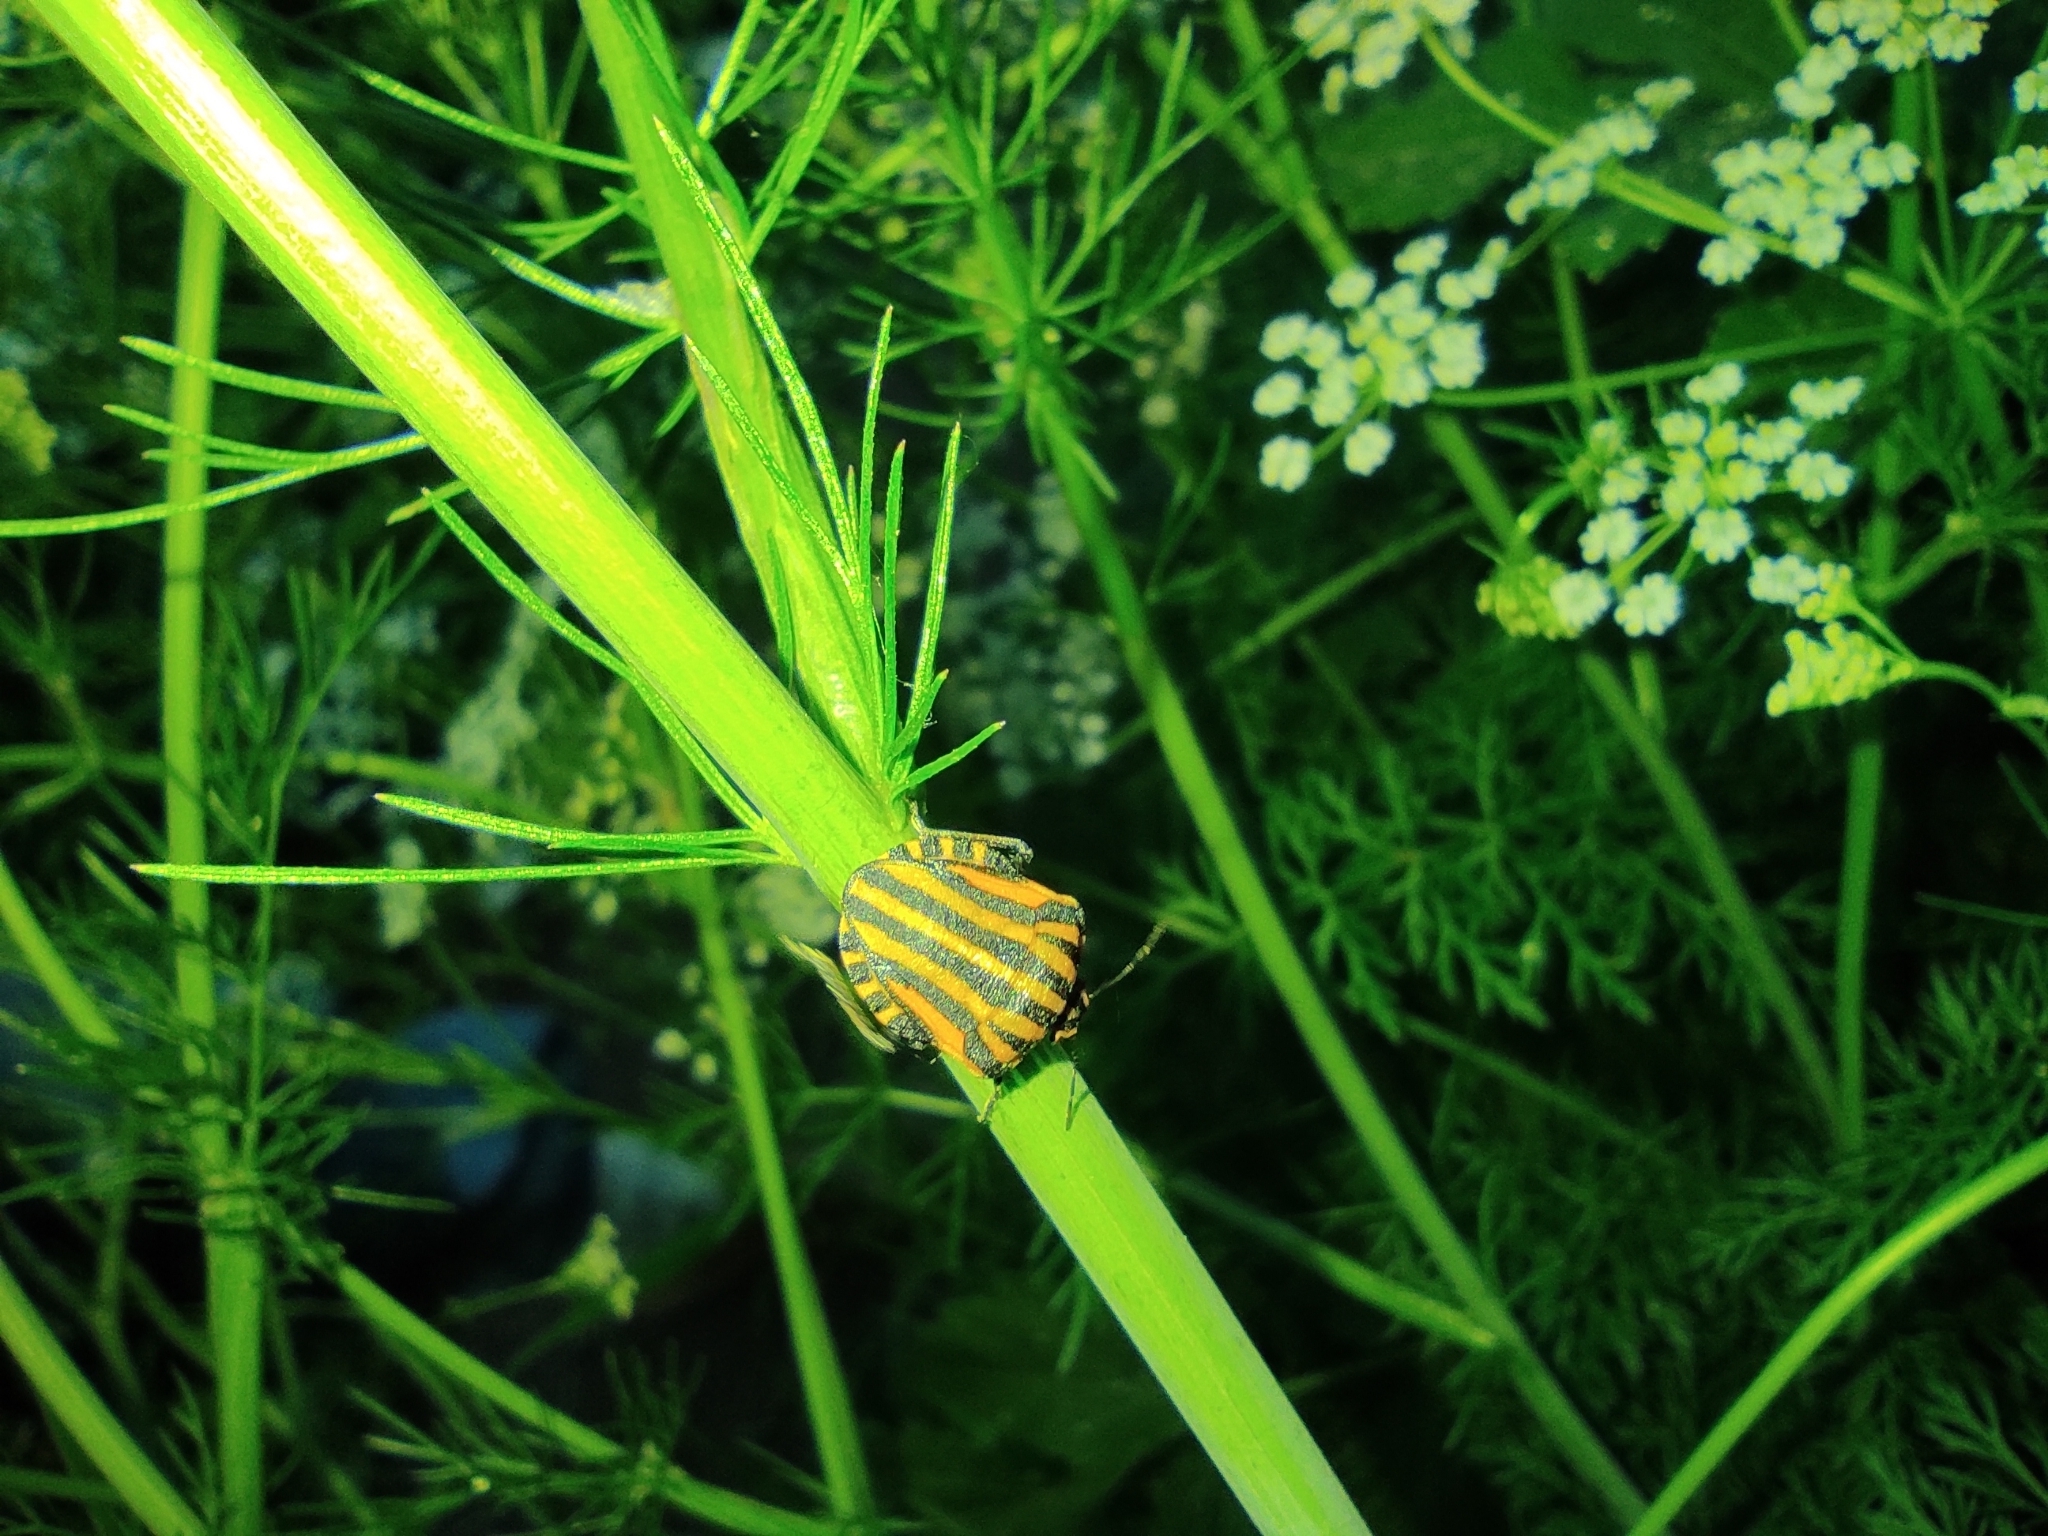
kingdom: Animalia
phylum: Arthropoda
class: Insecta
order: Hemiptera
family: Pentatomidae
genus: Graphosoma
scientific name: Graphosoma italicum
